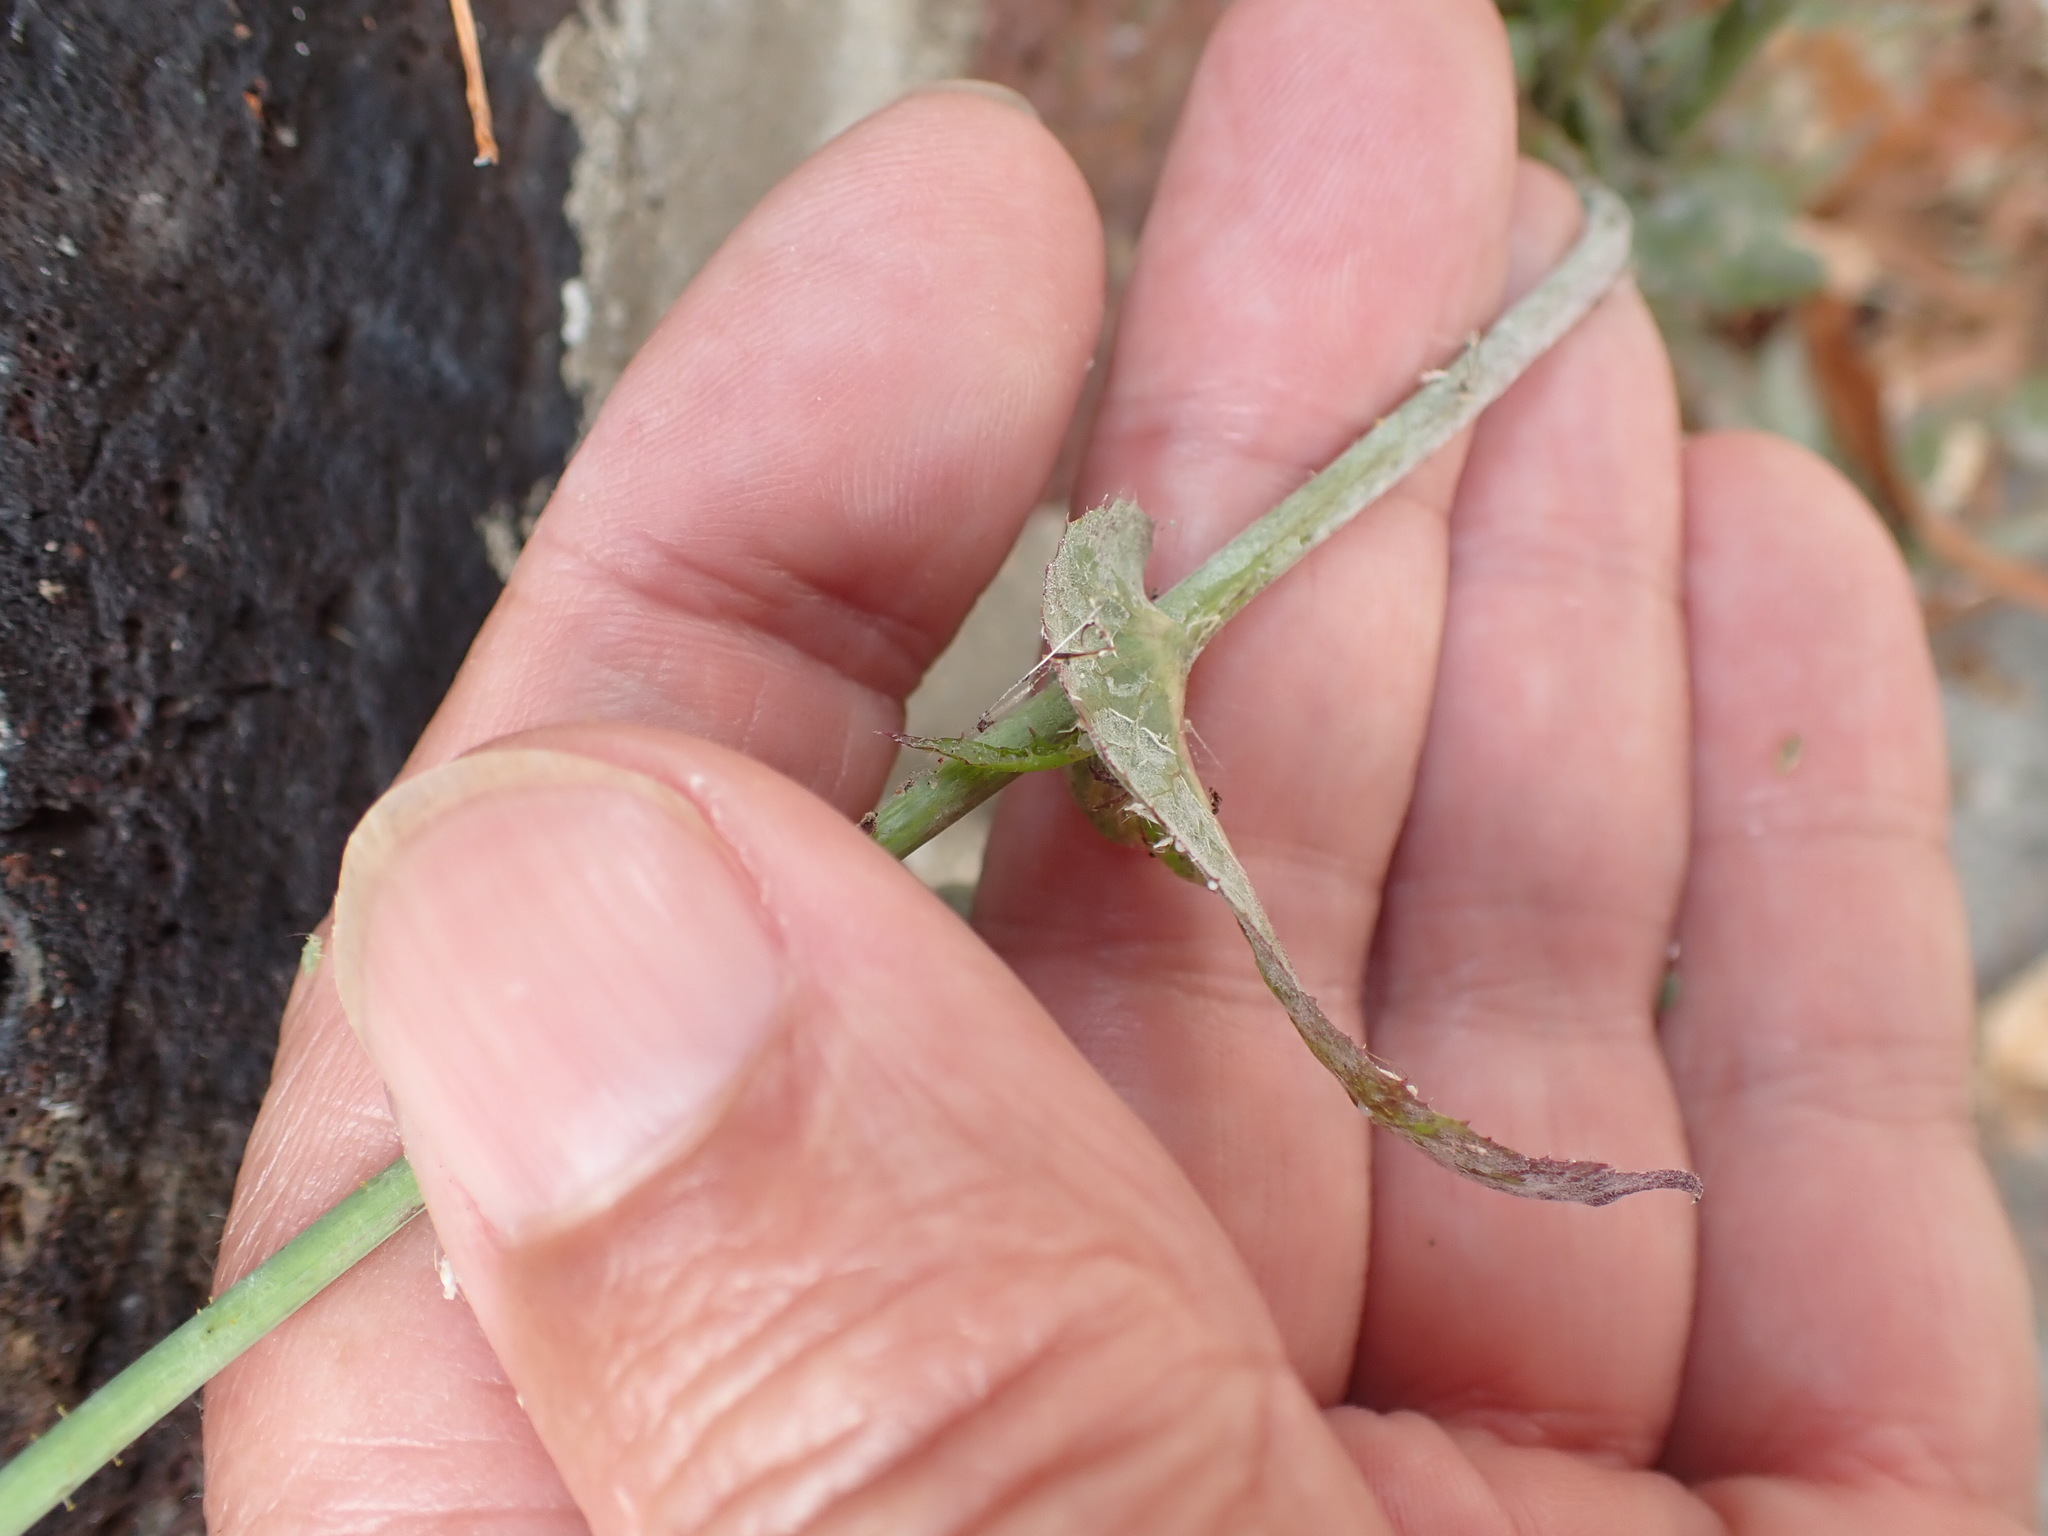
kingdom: Plantae
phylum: Tracheophyta
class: Magnoliopsida
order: Asterales
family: Asteraceae
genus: Sonchus
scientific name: Sonchus oleraceus
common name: Common sowthistle
